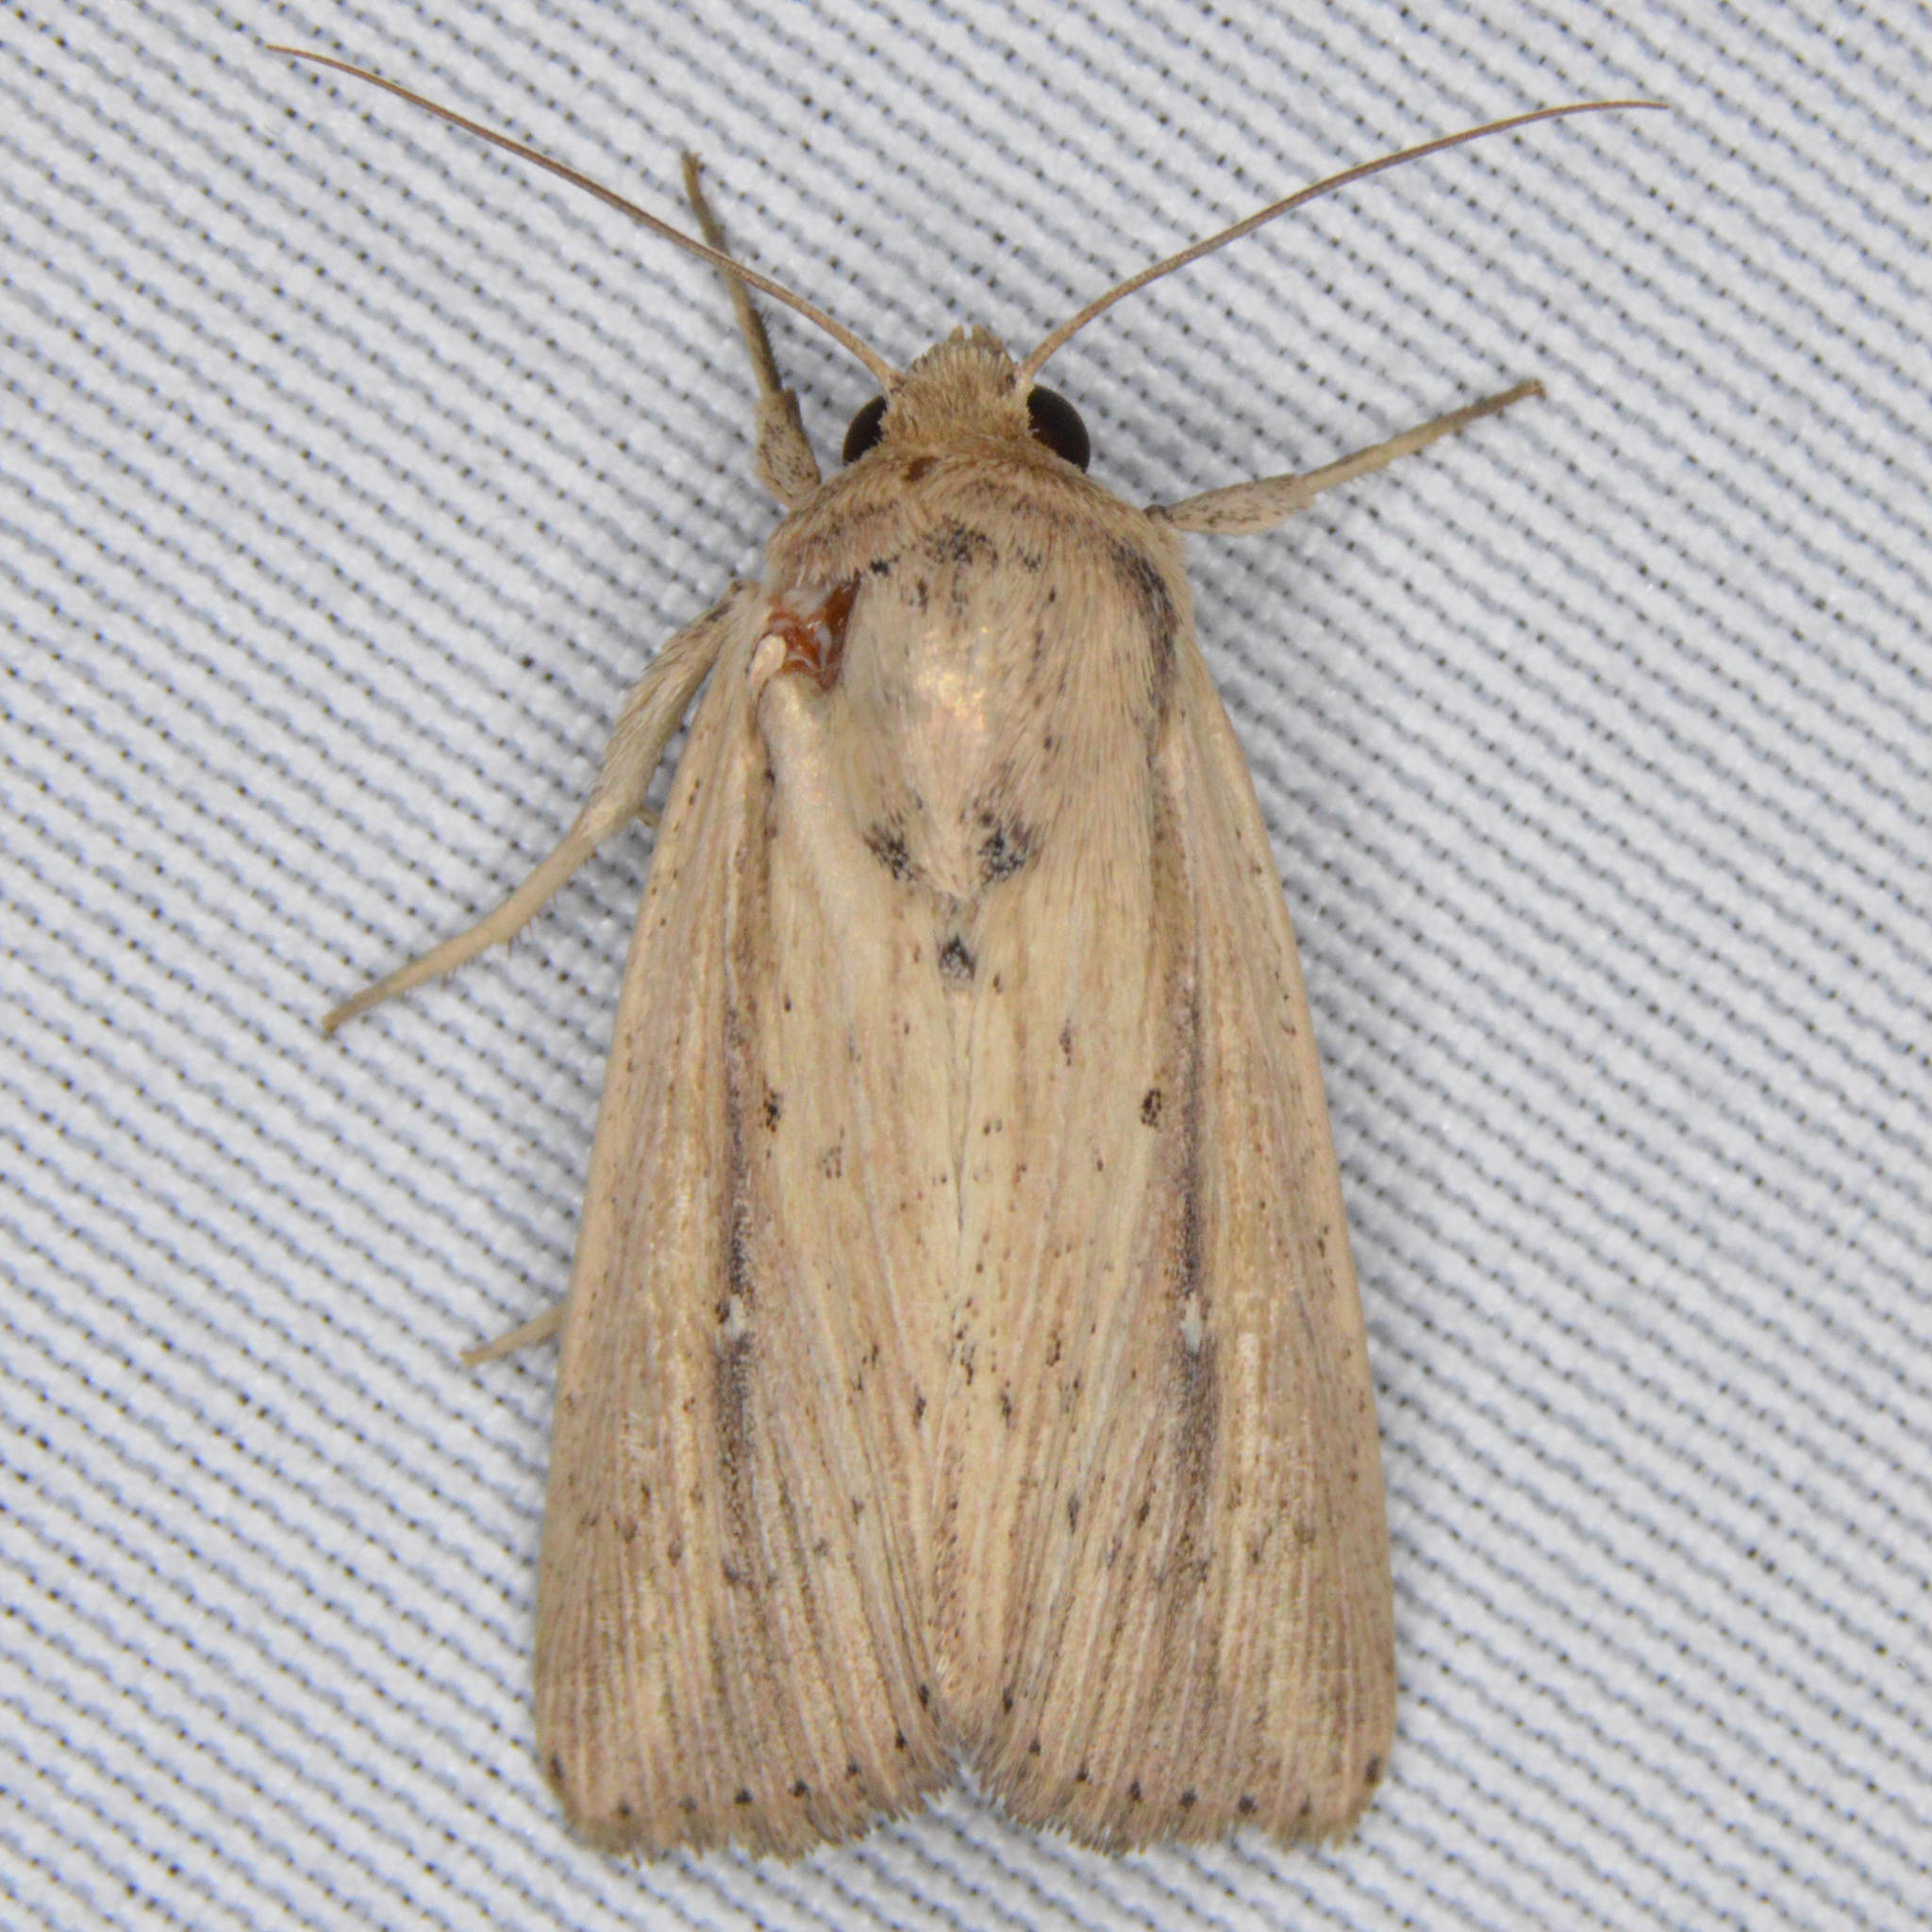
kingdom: Animalia
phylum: Arthropoda
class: Insecta
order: Lepidoptera
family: Noctuidae
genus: Leucania
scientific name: Leucania incognita
